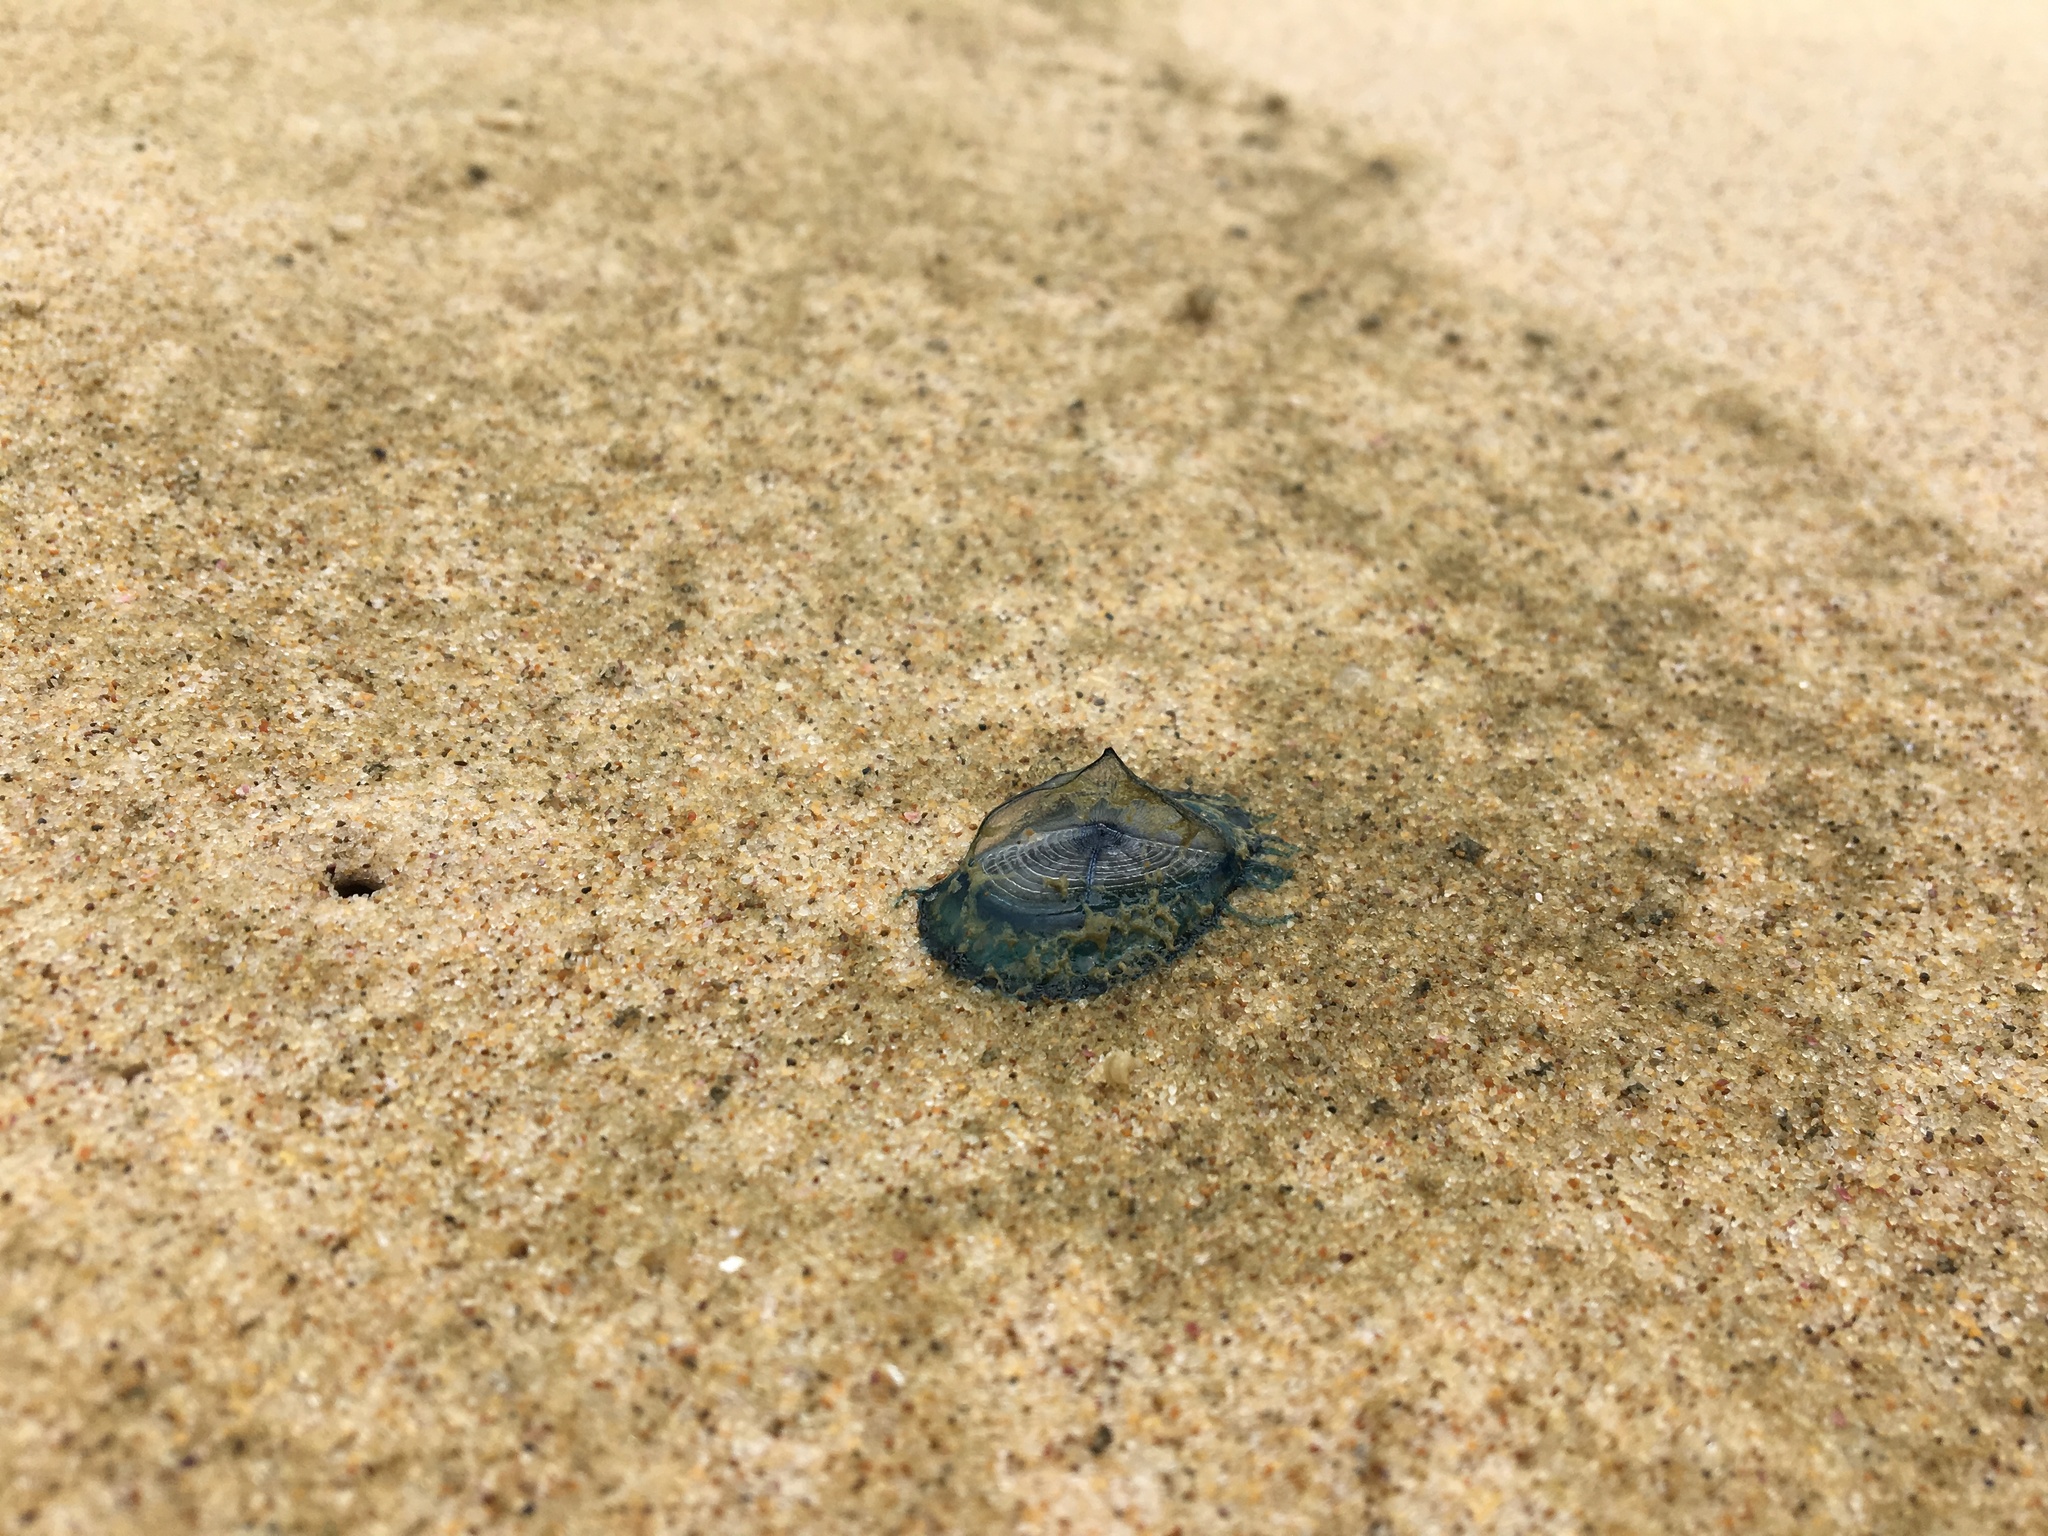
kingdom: Animalia
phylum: Cnidaria
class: Hydrozoa
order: Anthoathecata
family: Porpitidae
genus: Velella
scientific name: Velella velella
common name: By-the-wind-sailor
